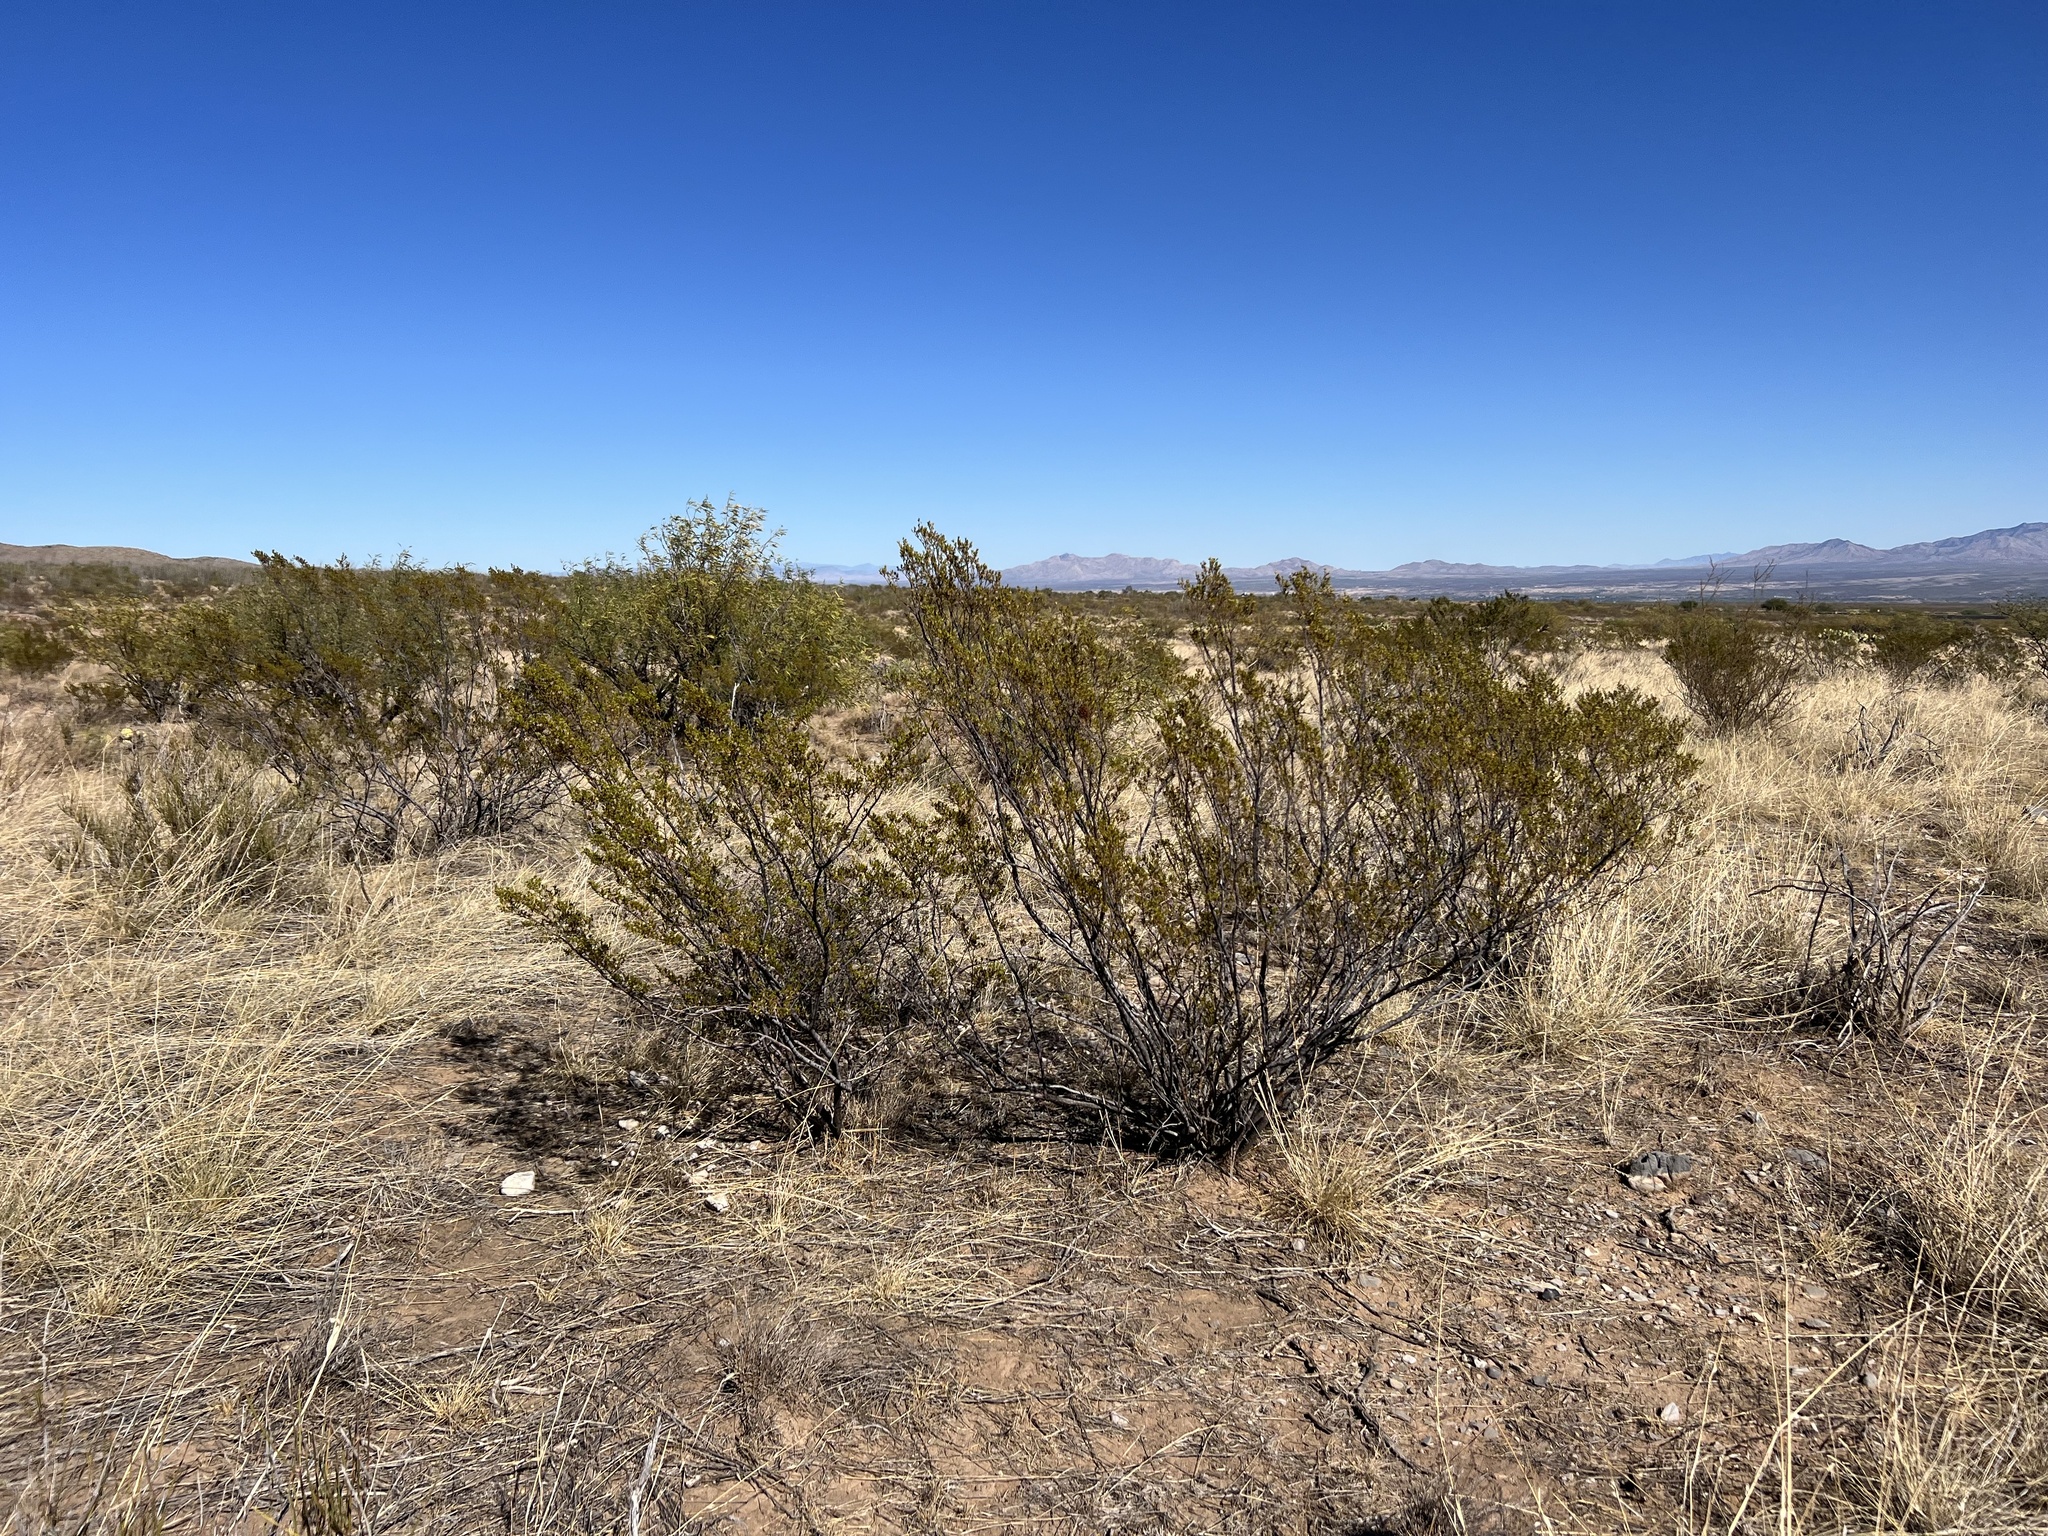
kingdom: Plantae
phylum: Tracheophyta
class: Magnoliopsida
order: Zygophyllales
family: Zygophyllaceae
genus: Larrea
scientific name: Larrea tridentata
